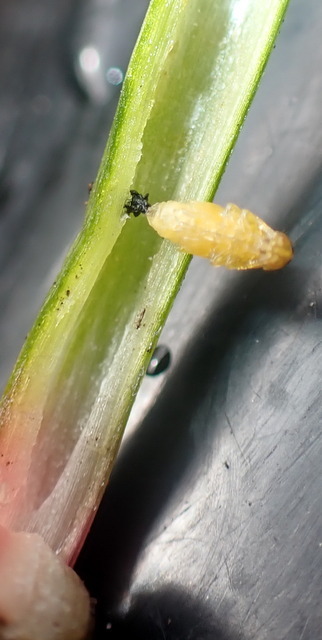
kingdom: Animalia
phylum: Arthropoda
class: Insecta
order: Coleoptera
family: Chrysomelidae
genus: Agasicles
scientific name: Agasicles hygrophila
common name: Alligatorweed flea beetle
